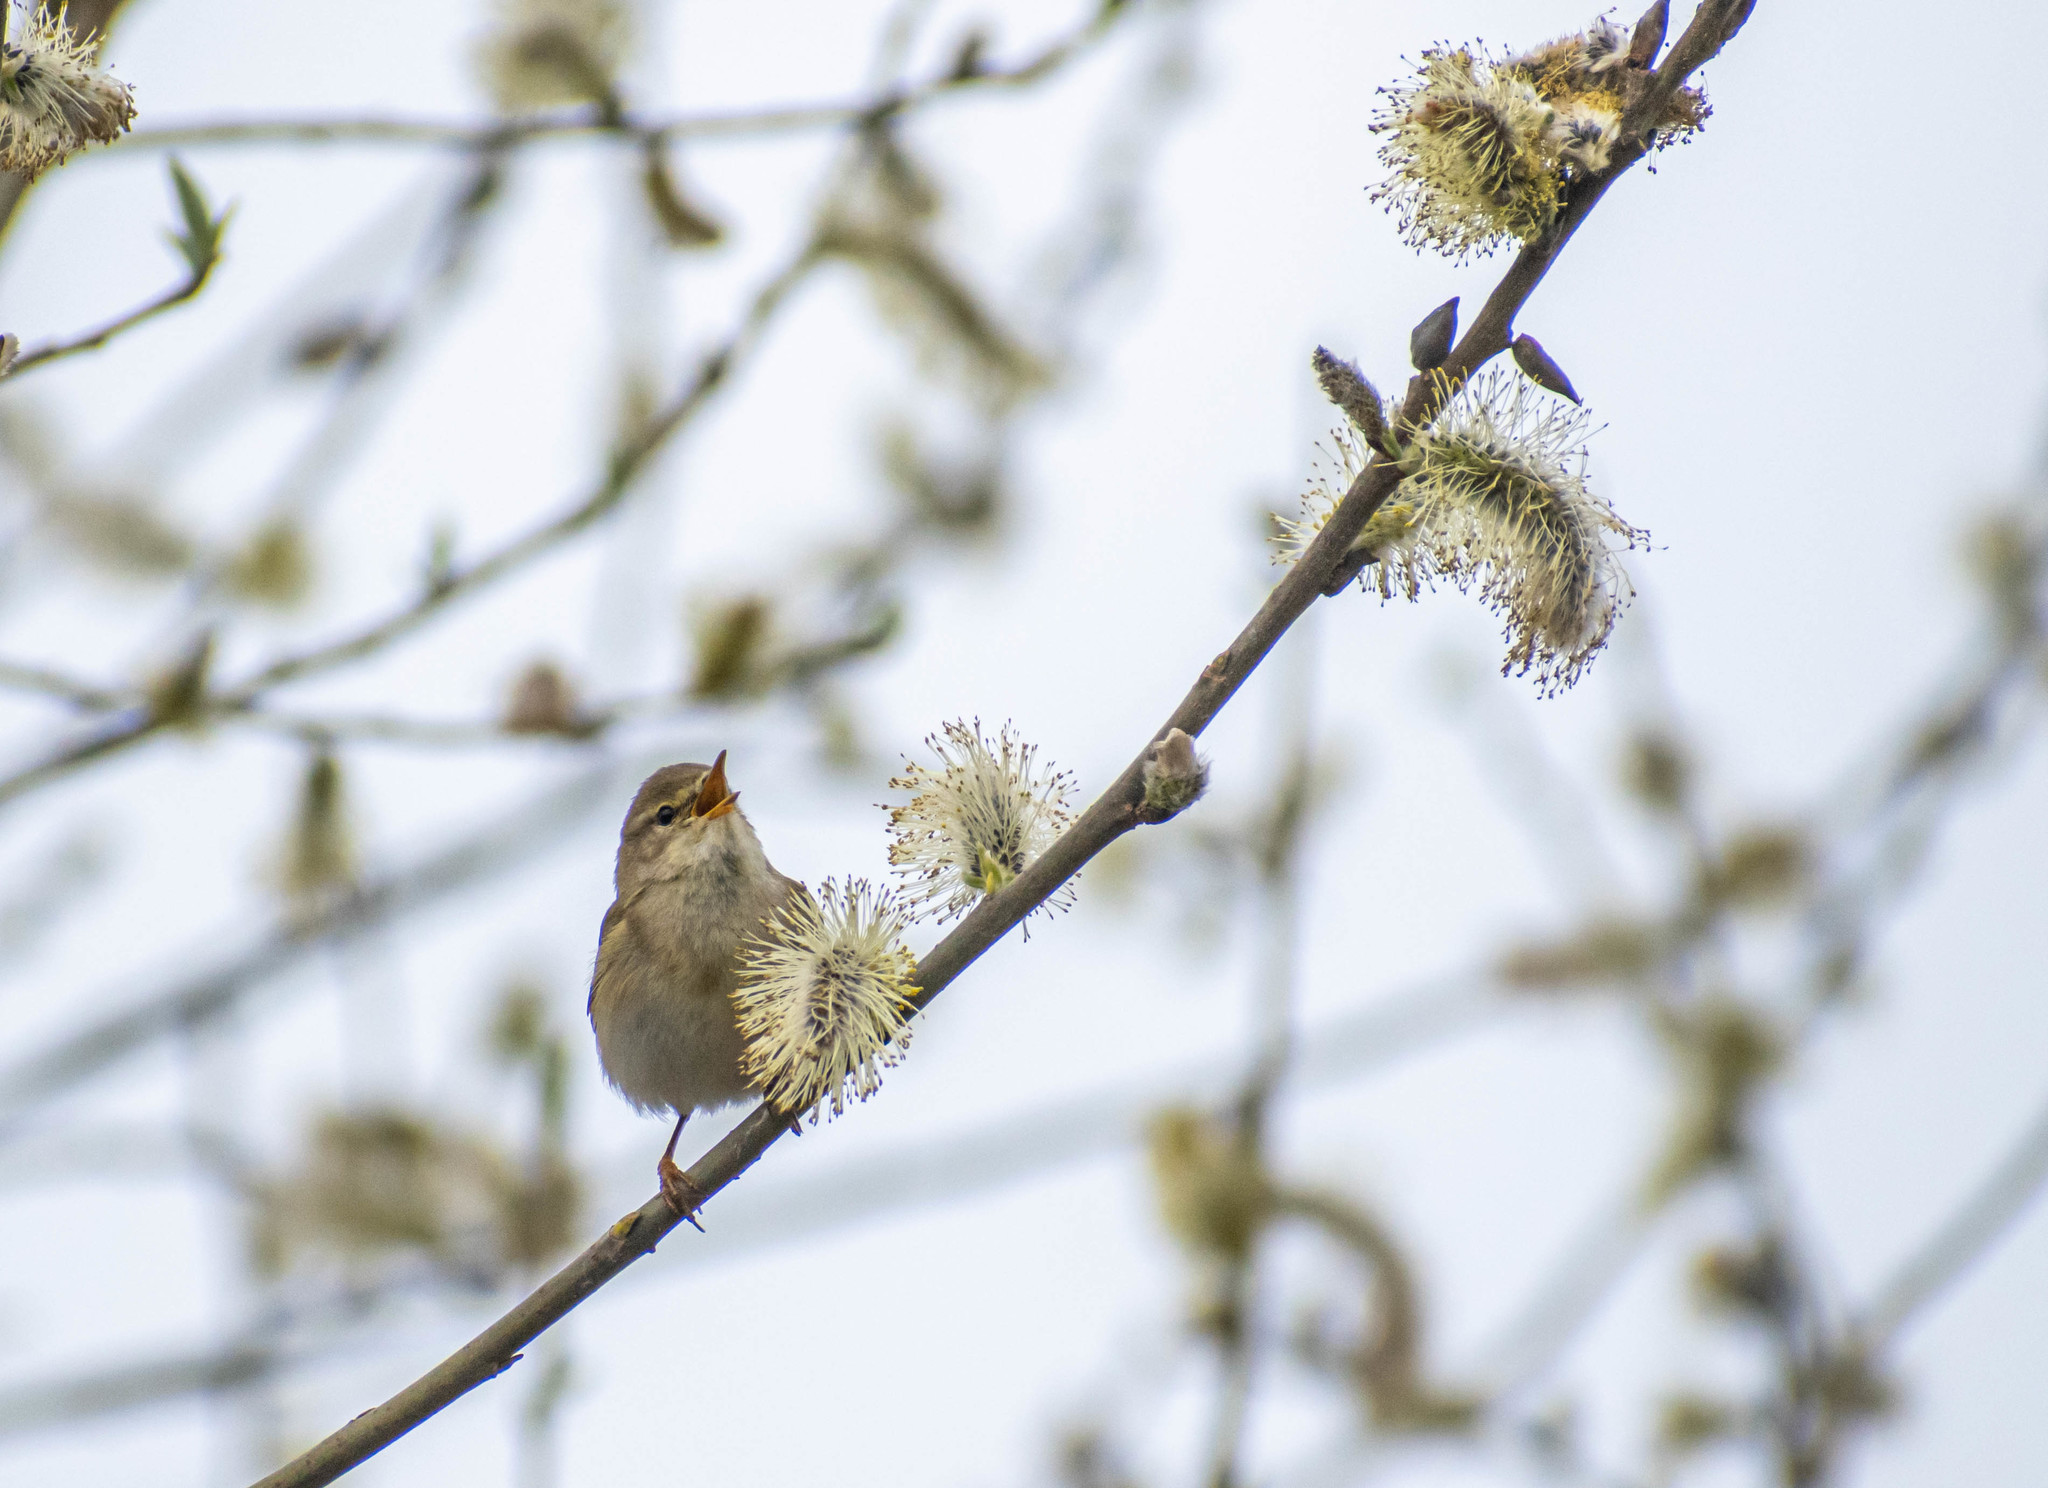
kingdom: Animalia
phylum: Chordata
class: Aves
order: Passeriformes
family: Phylloscopidae
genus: Phylloscopus
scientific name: Phylloscopus trochilus
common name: Willow warbler
